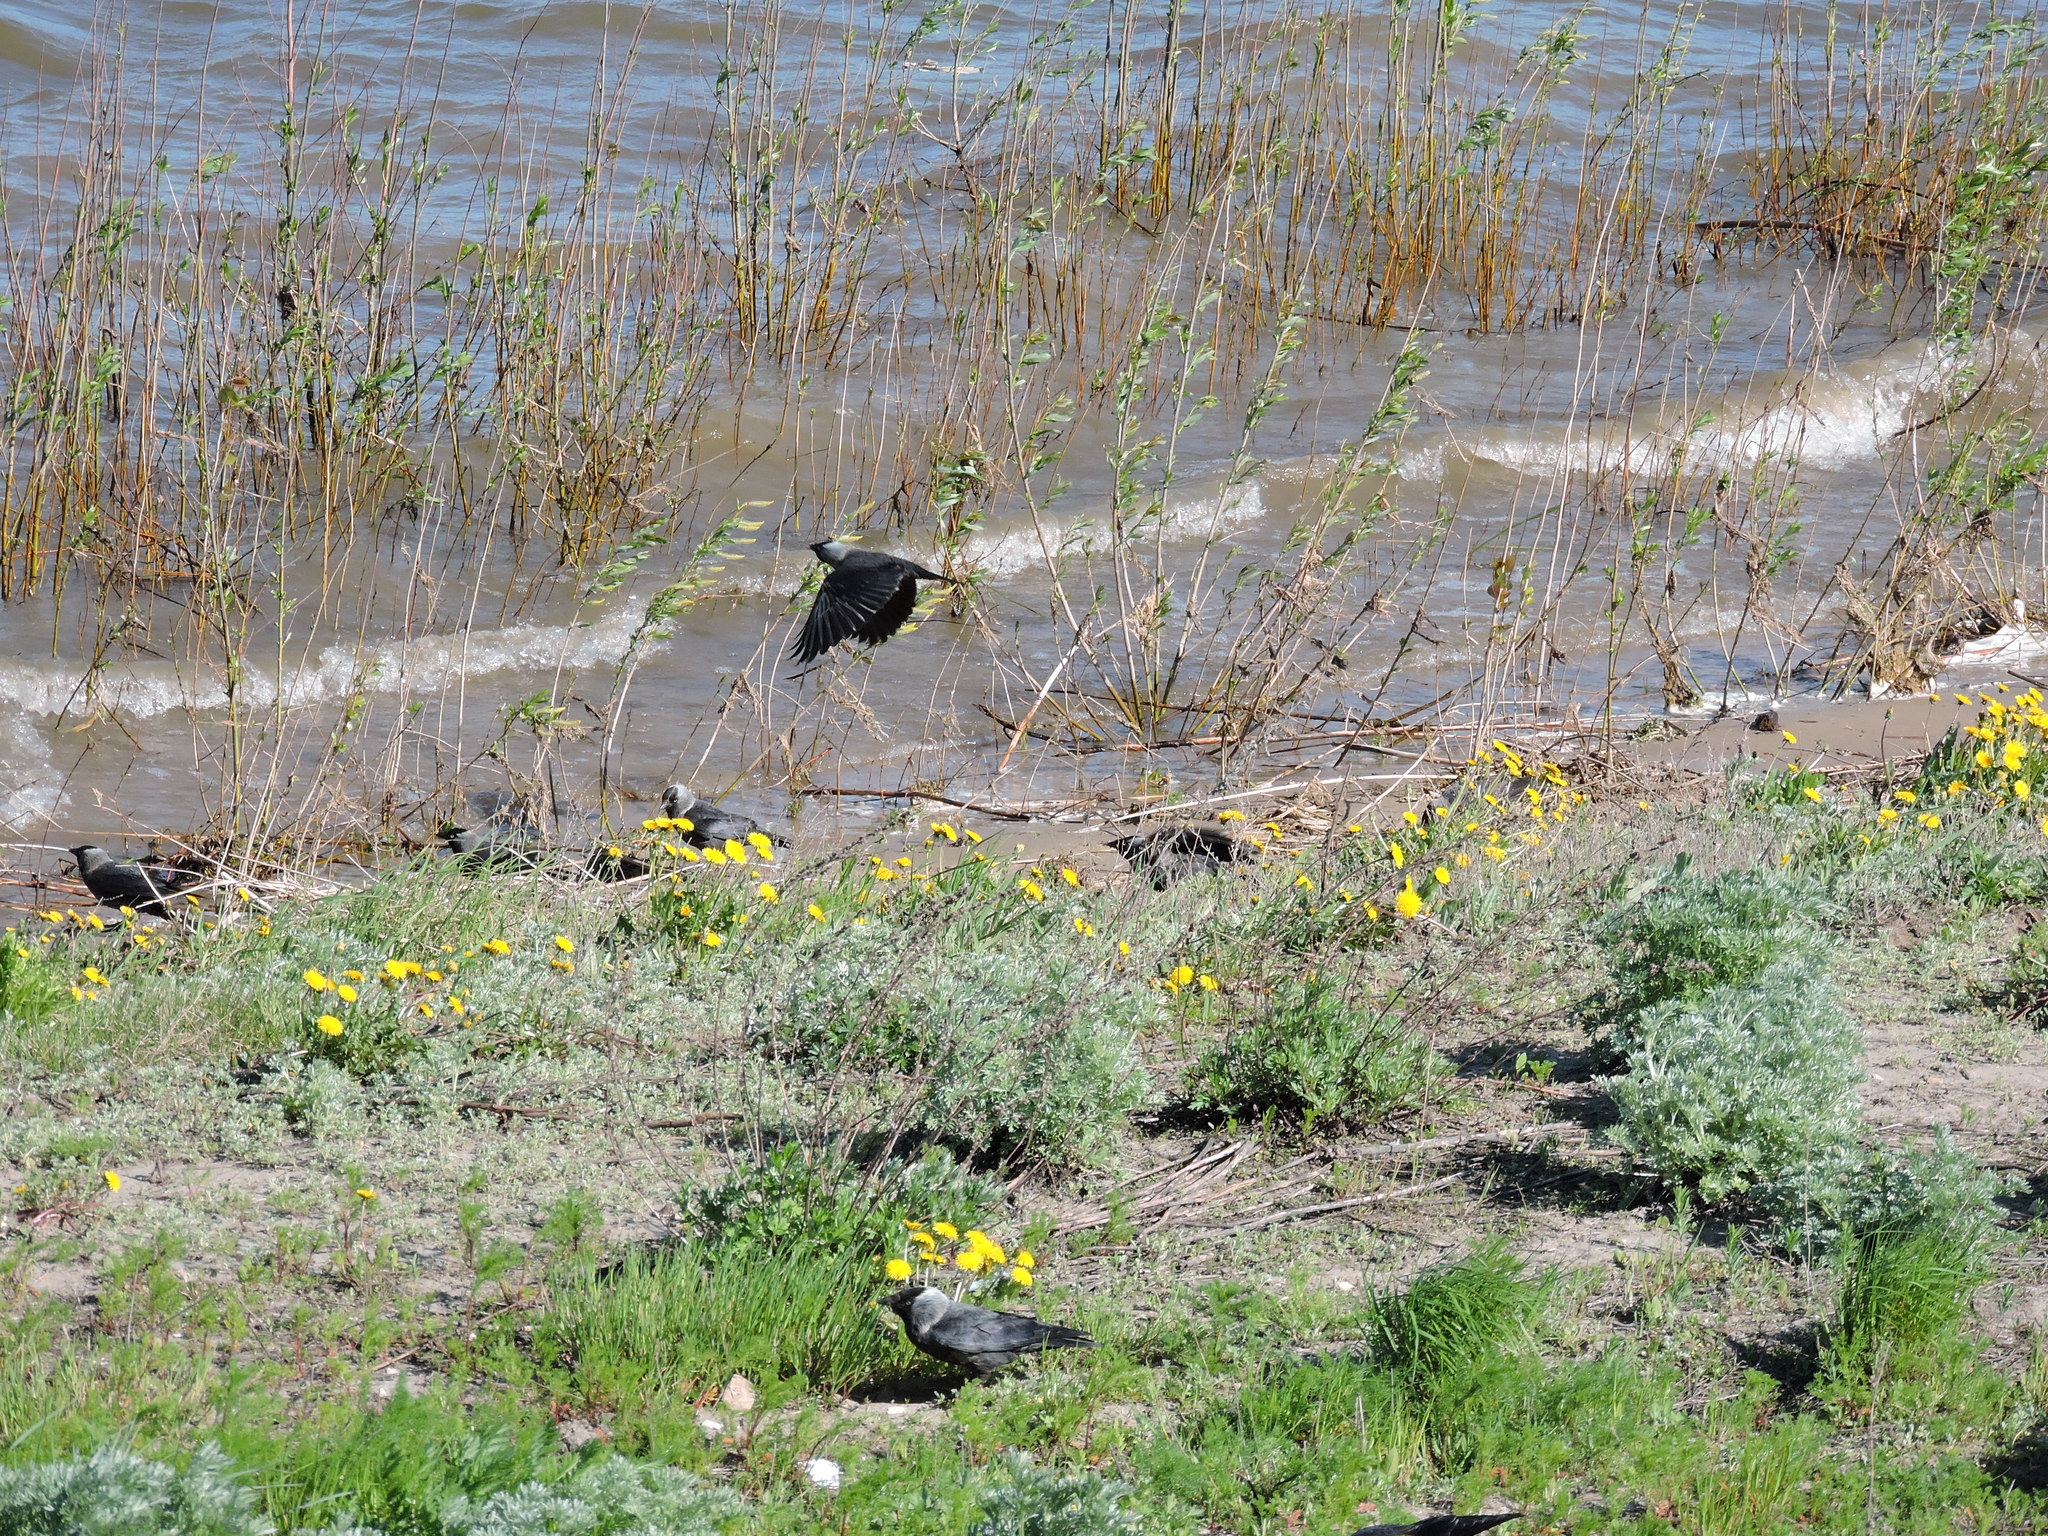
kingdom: Animalia
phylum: Chordata
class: Aves
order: Passeriformes
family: Corvidae
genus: Coloeus
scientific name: Coloeus monedula
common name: Western jackdaw
